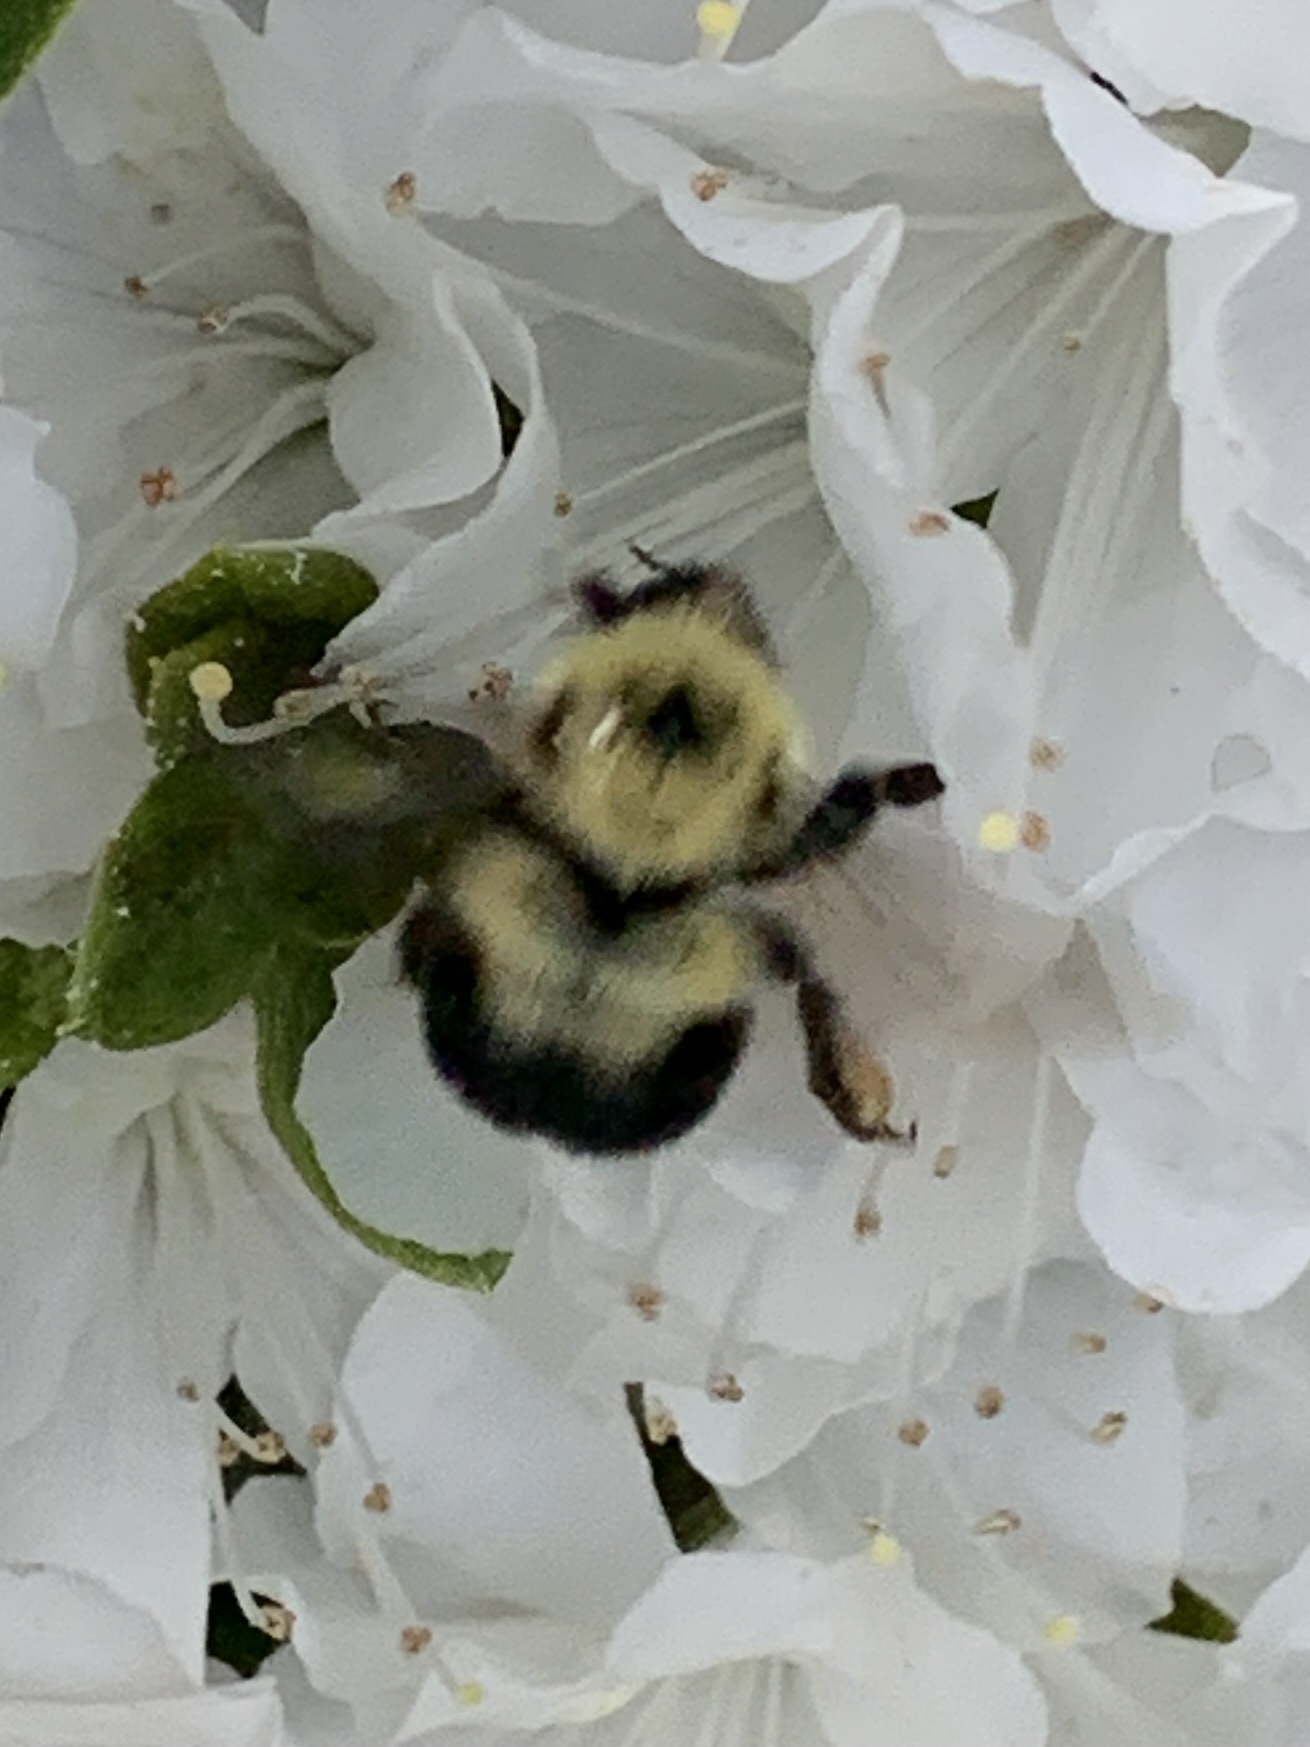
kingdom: Animalia
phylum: Arthropoda
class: Insecta
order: Hymenoptera
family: Apidae
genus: Bombus
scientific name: Bombus bimaculatus
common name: Two-spotted bumble bee
